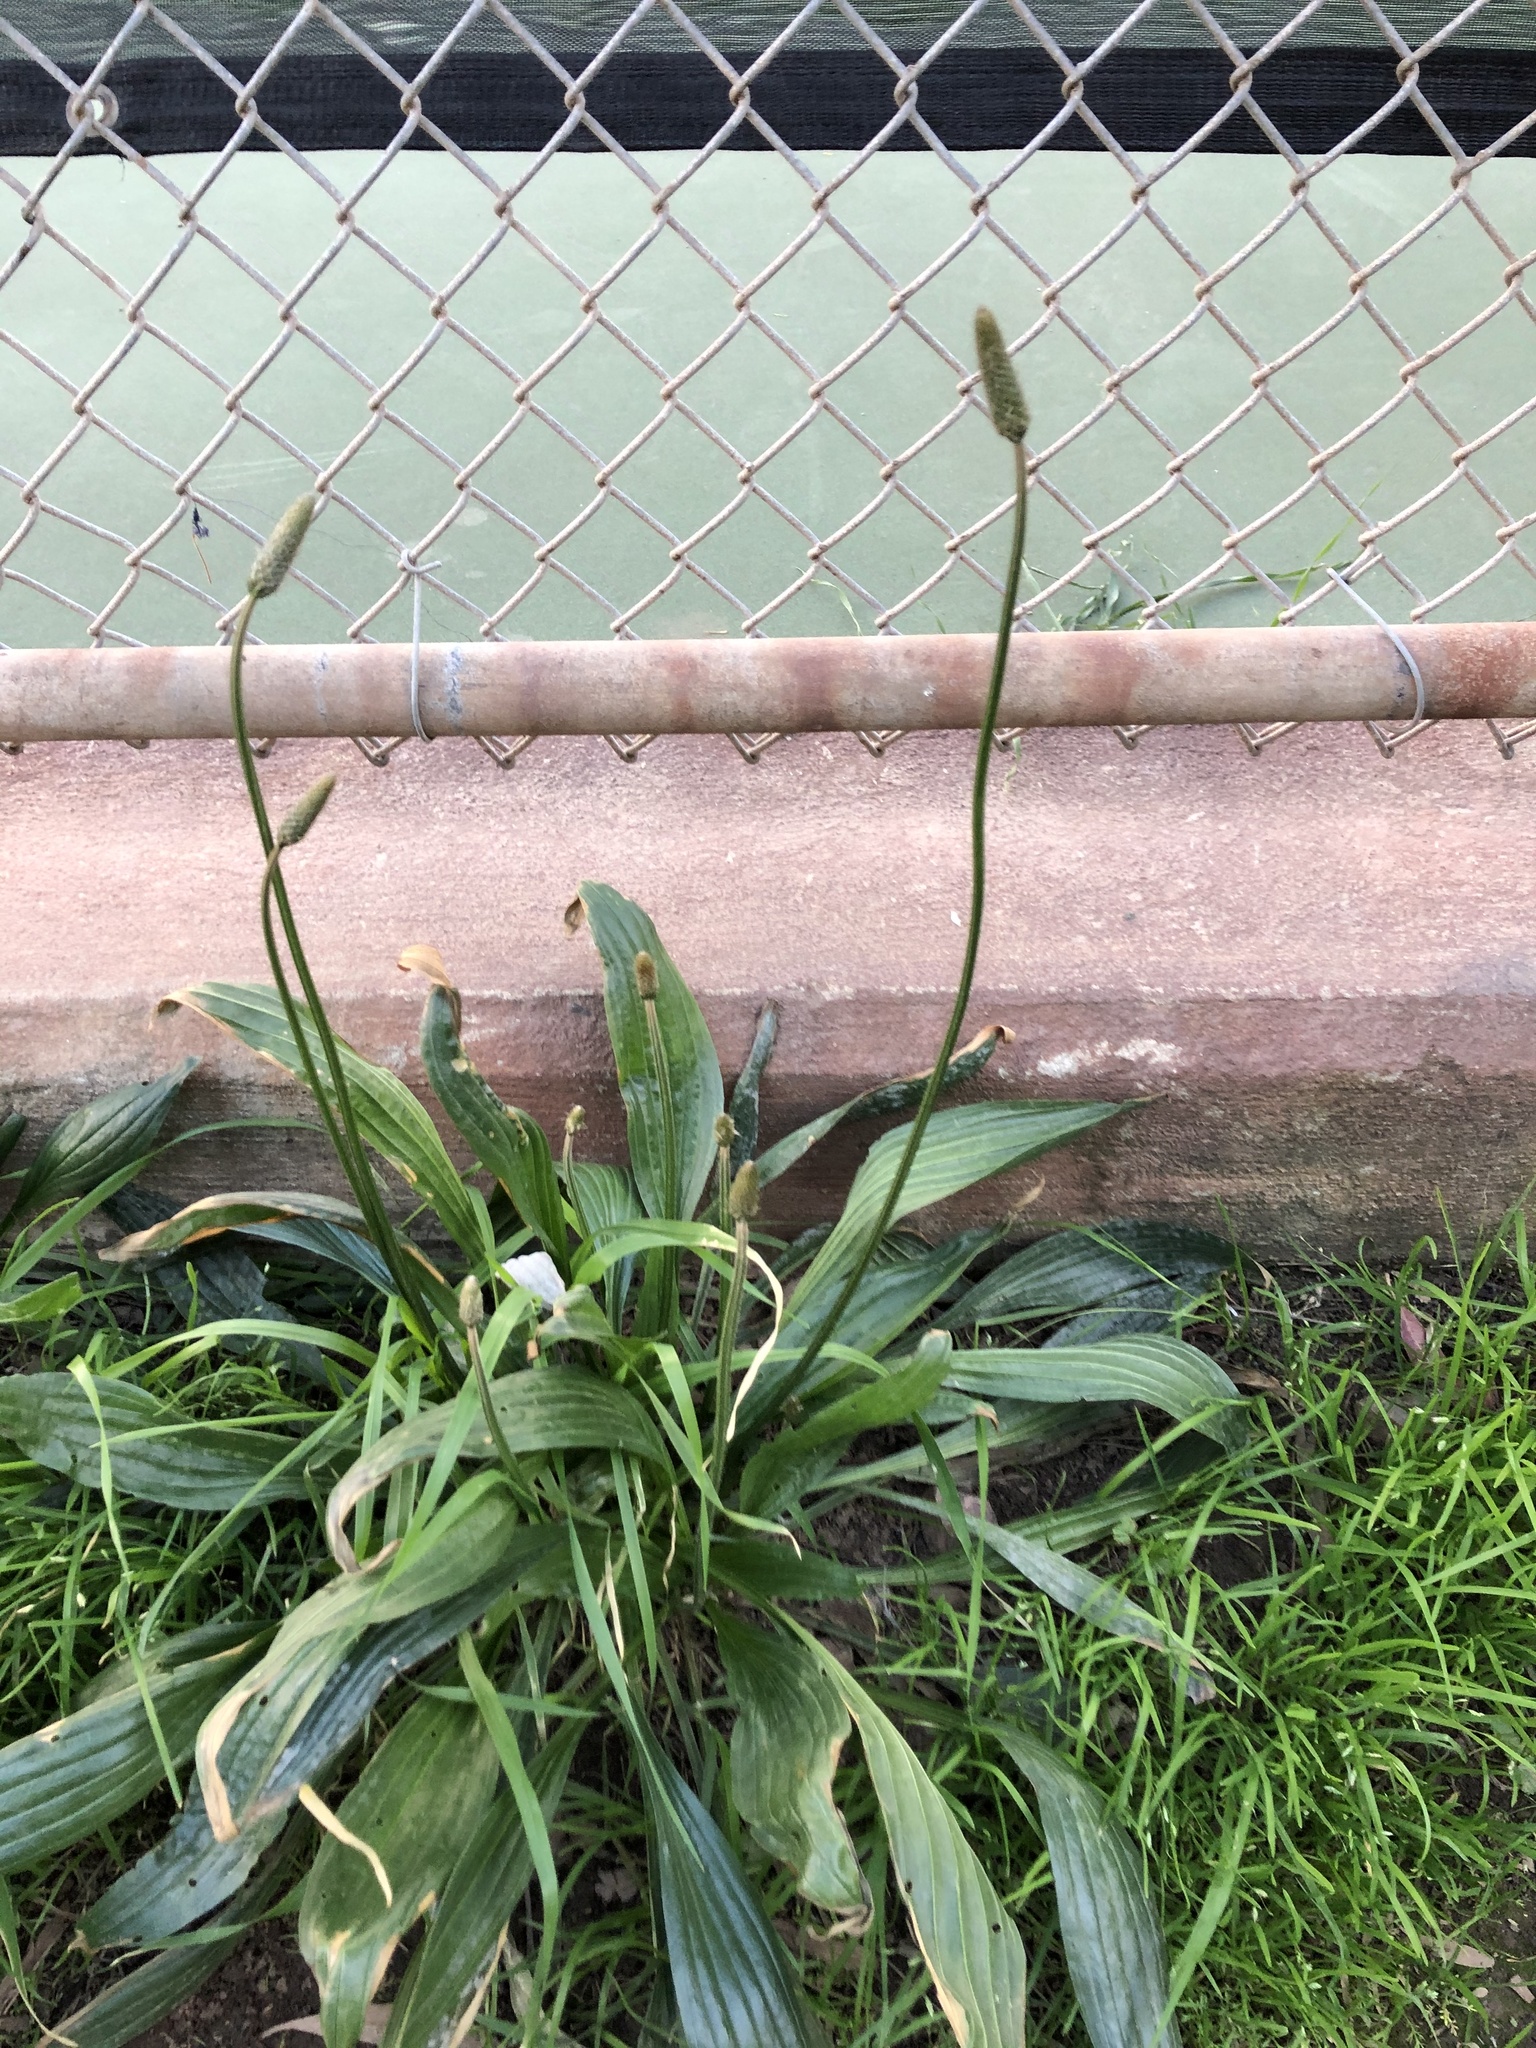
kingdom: Plantae
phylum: Tracheophyta
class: Magnoliopsida
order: Lamiales
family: Plantaginaceae
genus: Plantago
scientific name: Plantago lanceolata
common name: Ribwort plantain
